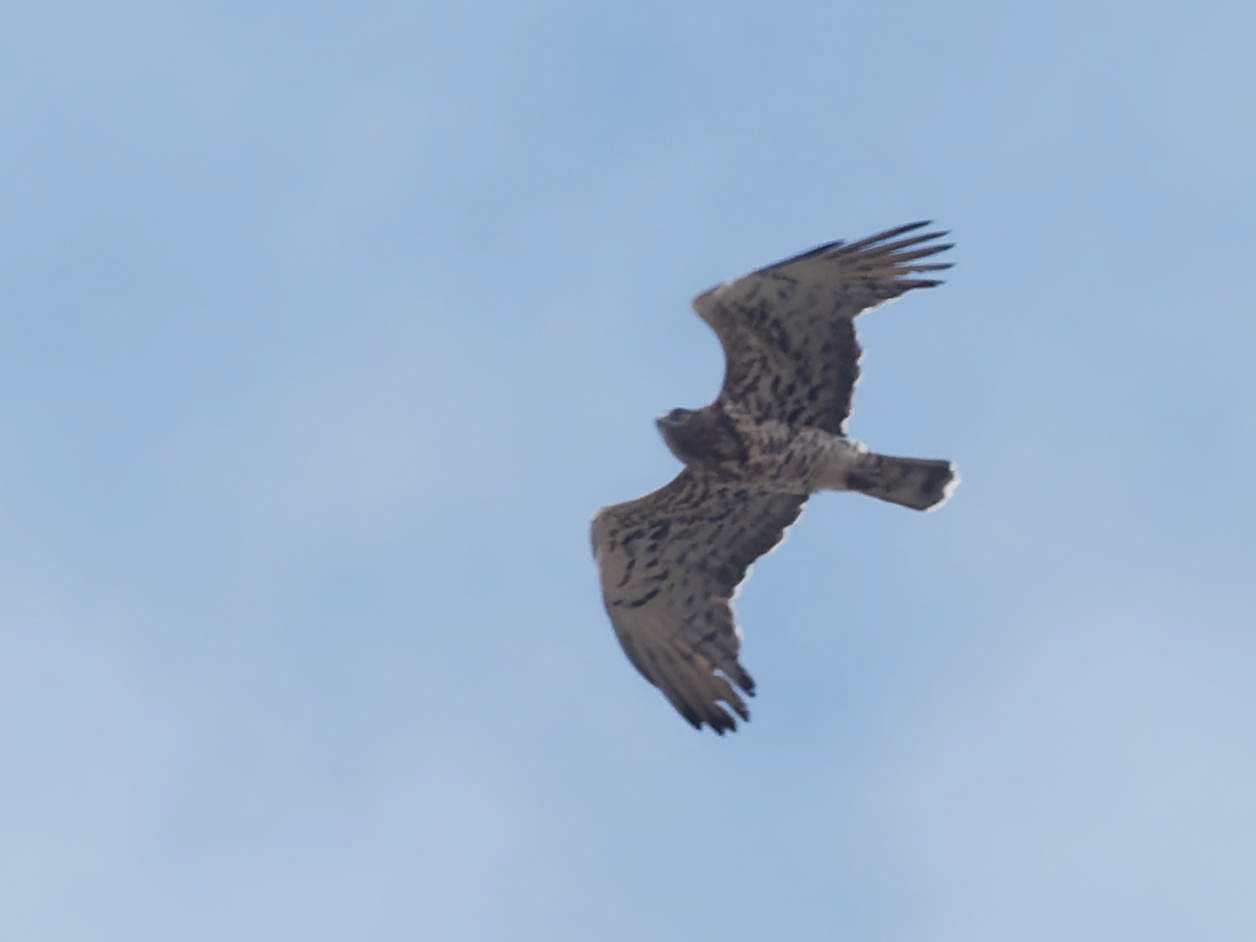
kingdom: Animalia
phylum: Chordata
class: Aves
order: Accipitriformes
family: Accipitridae
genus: Circaetus
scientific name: Circaetus gallicus
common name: Short-toed snake eagle
